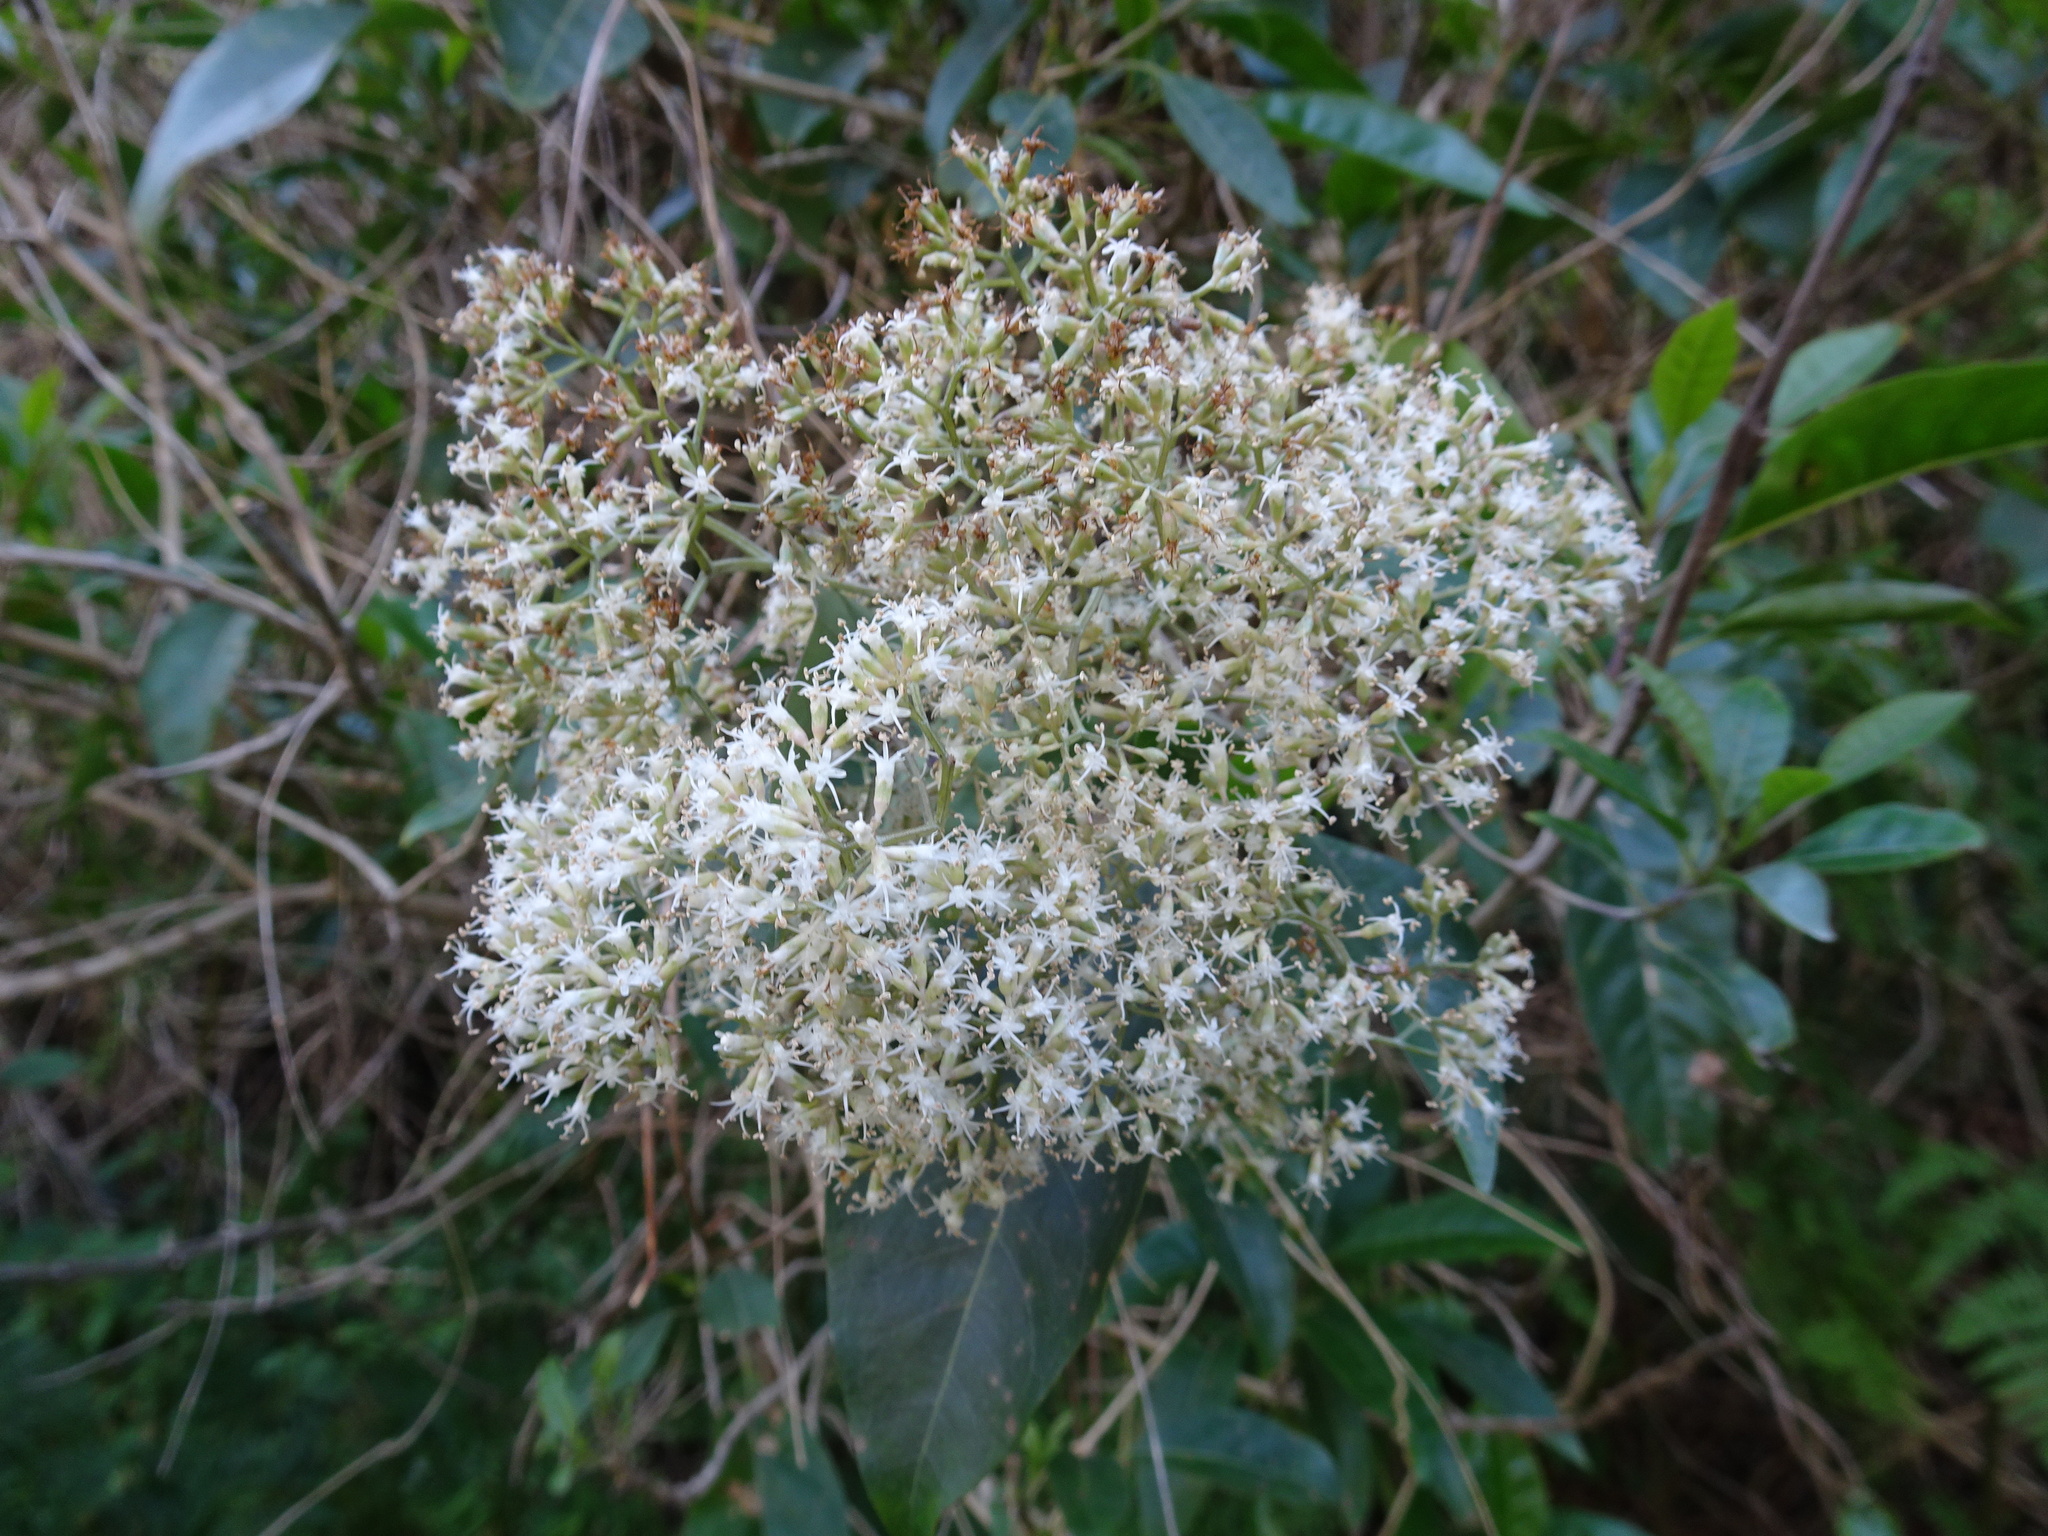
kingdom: Plantae
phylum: Tracheophyta
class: Magnoliopsida
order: Lamiales
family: Stilbaceae
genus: Nuxia
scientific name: Nuxia floribunda
